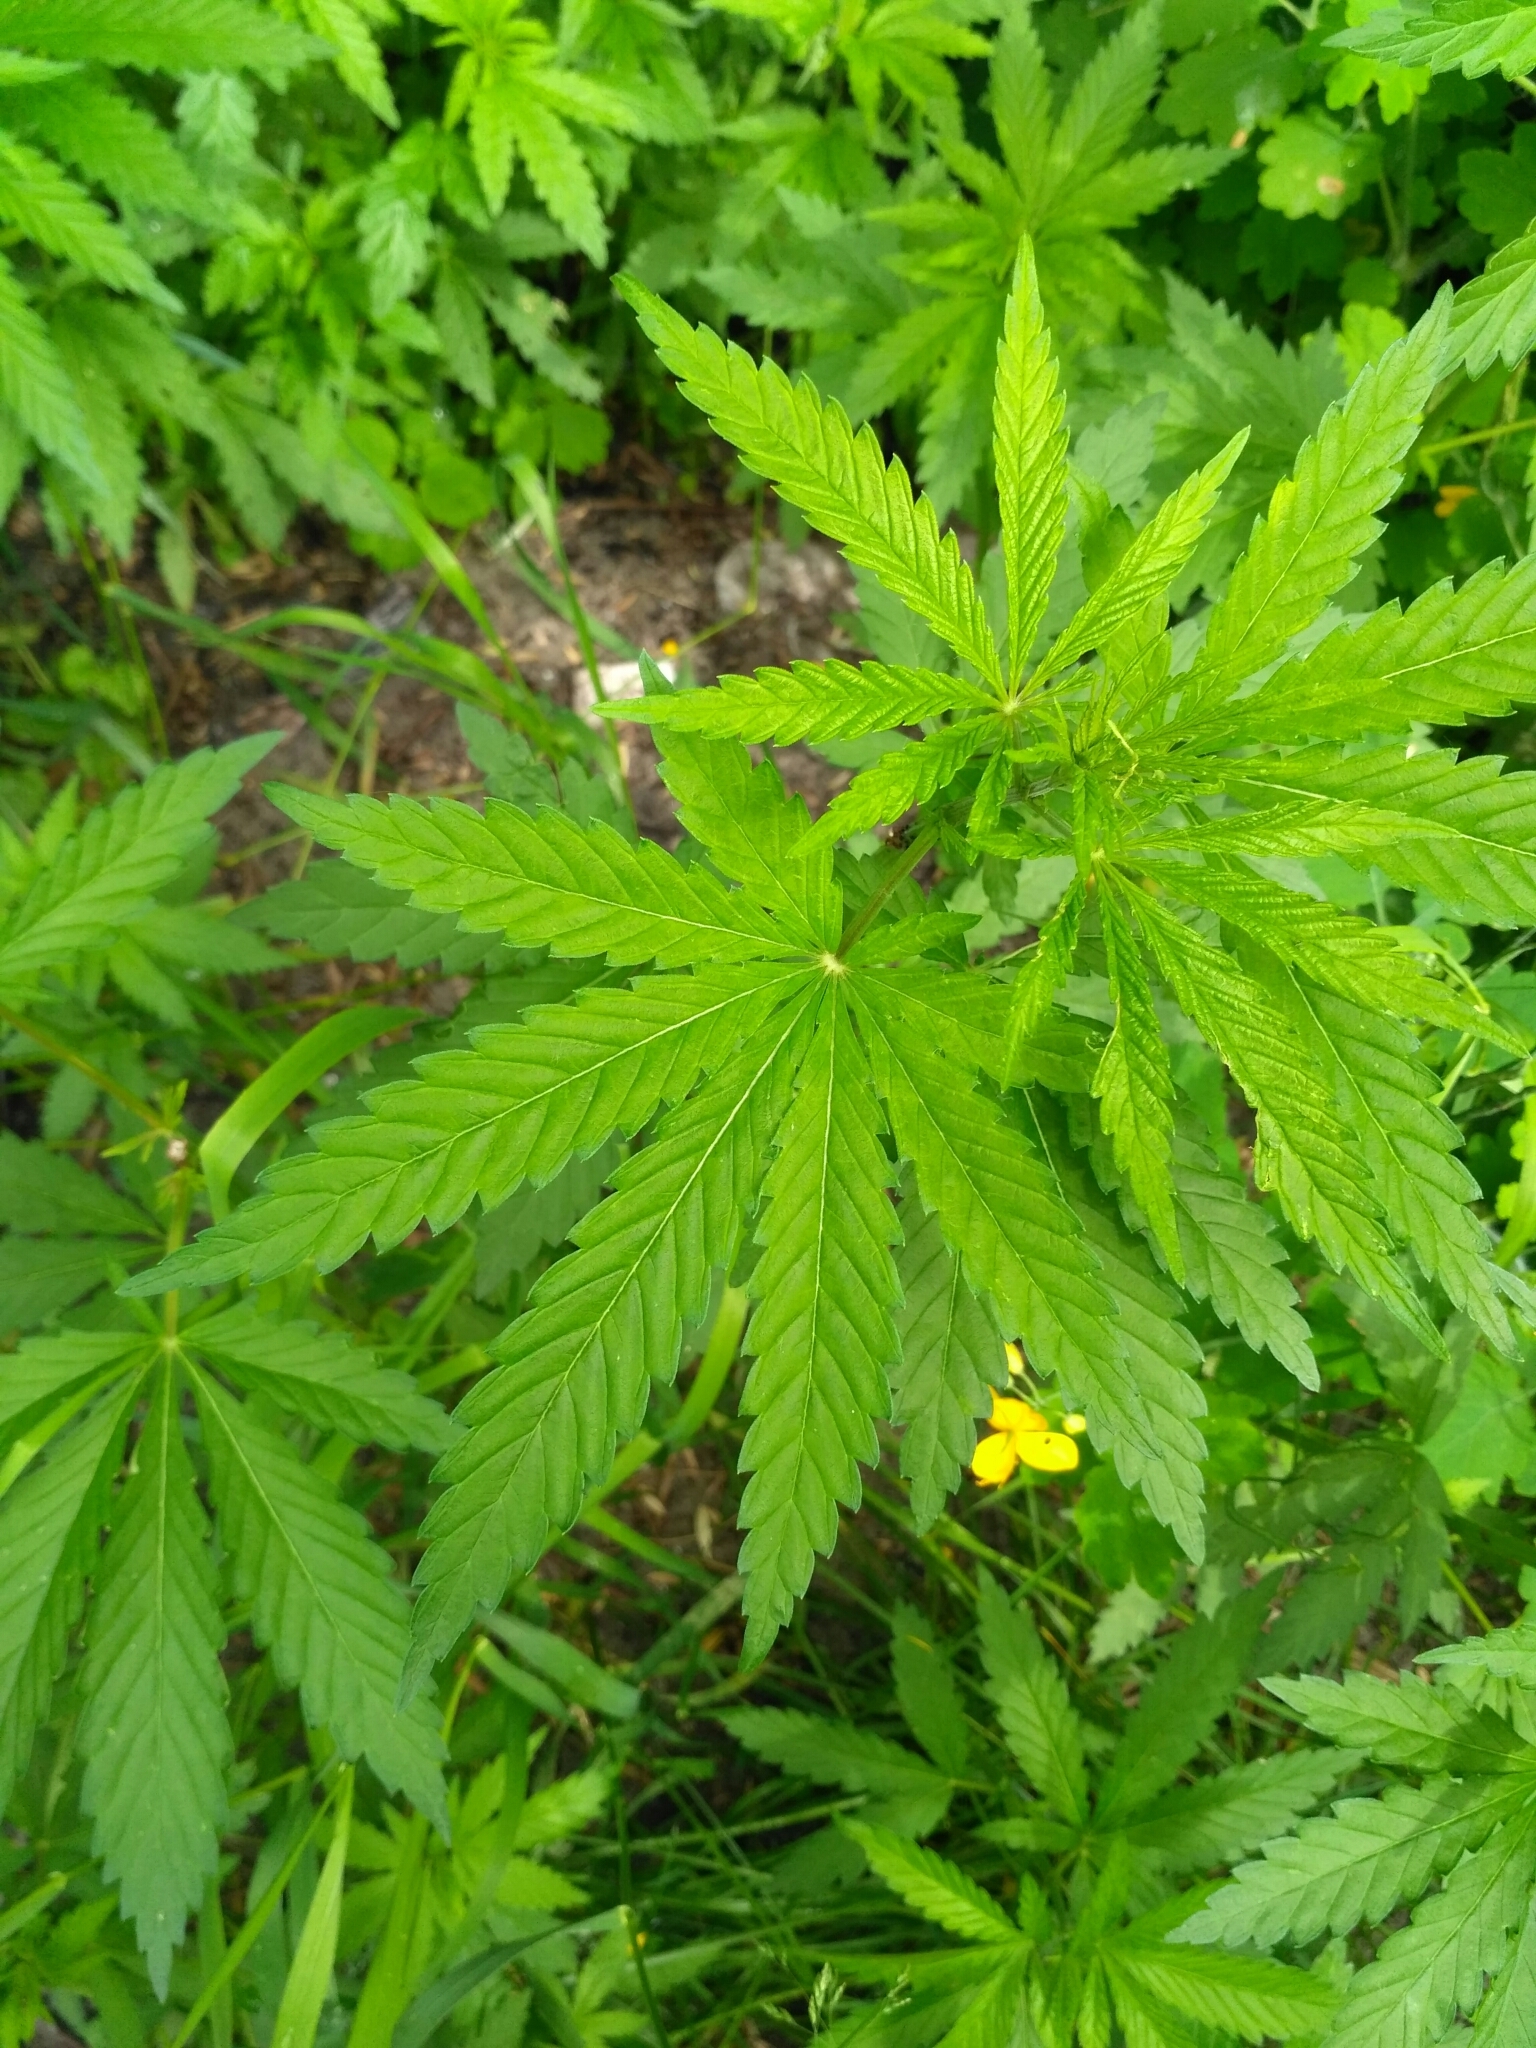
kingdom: Plantae
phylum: Tracheophyta
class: Magnoliopsida
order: Rosales
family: Cannabaceae
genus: Cannabis
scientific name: Cannabis sativa
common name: Hemp
